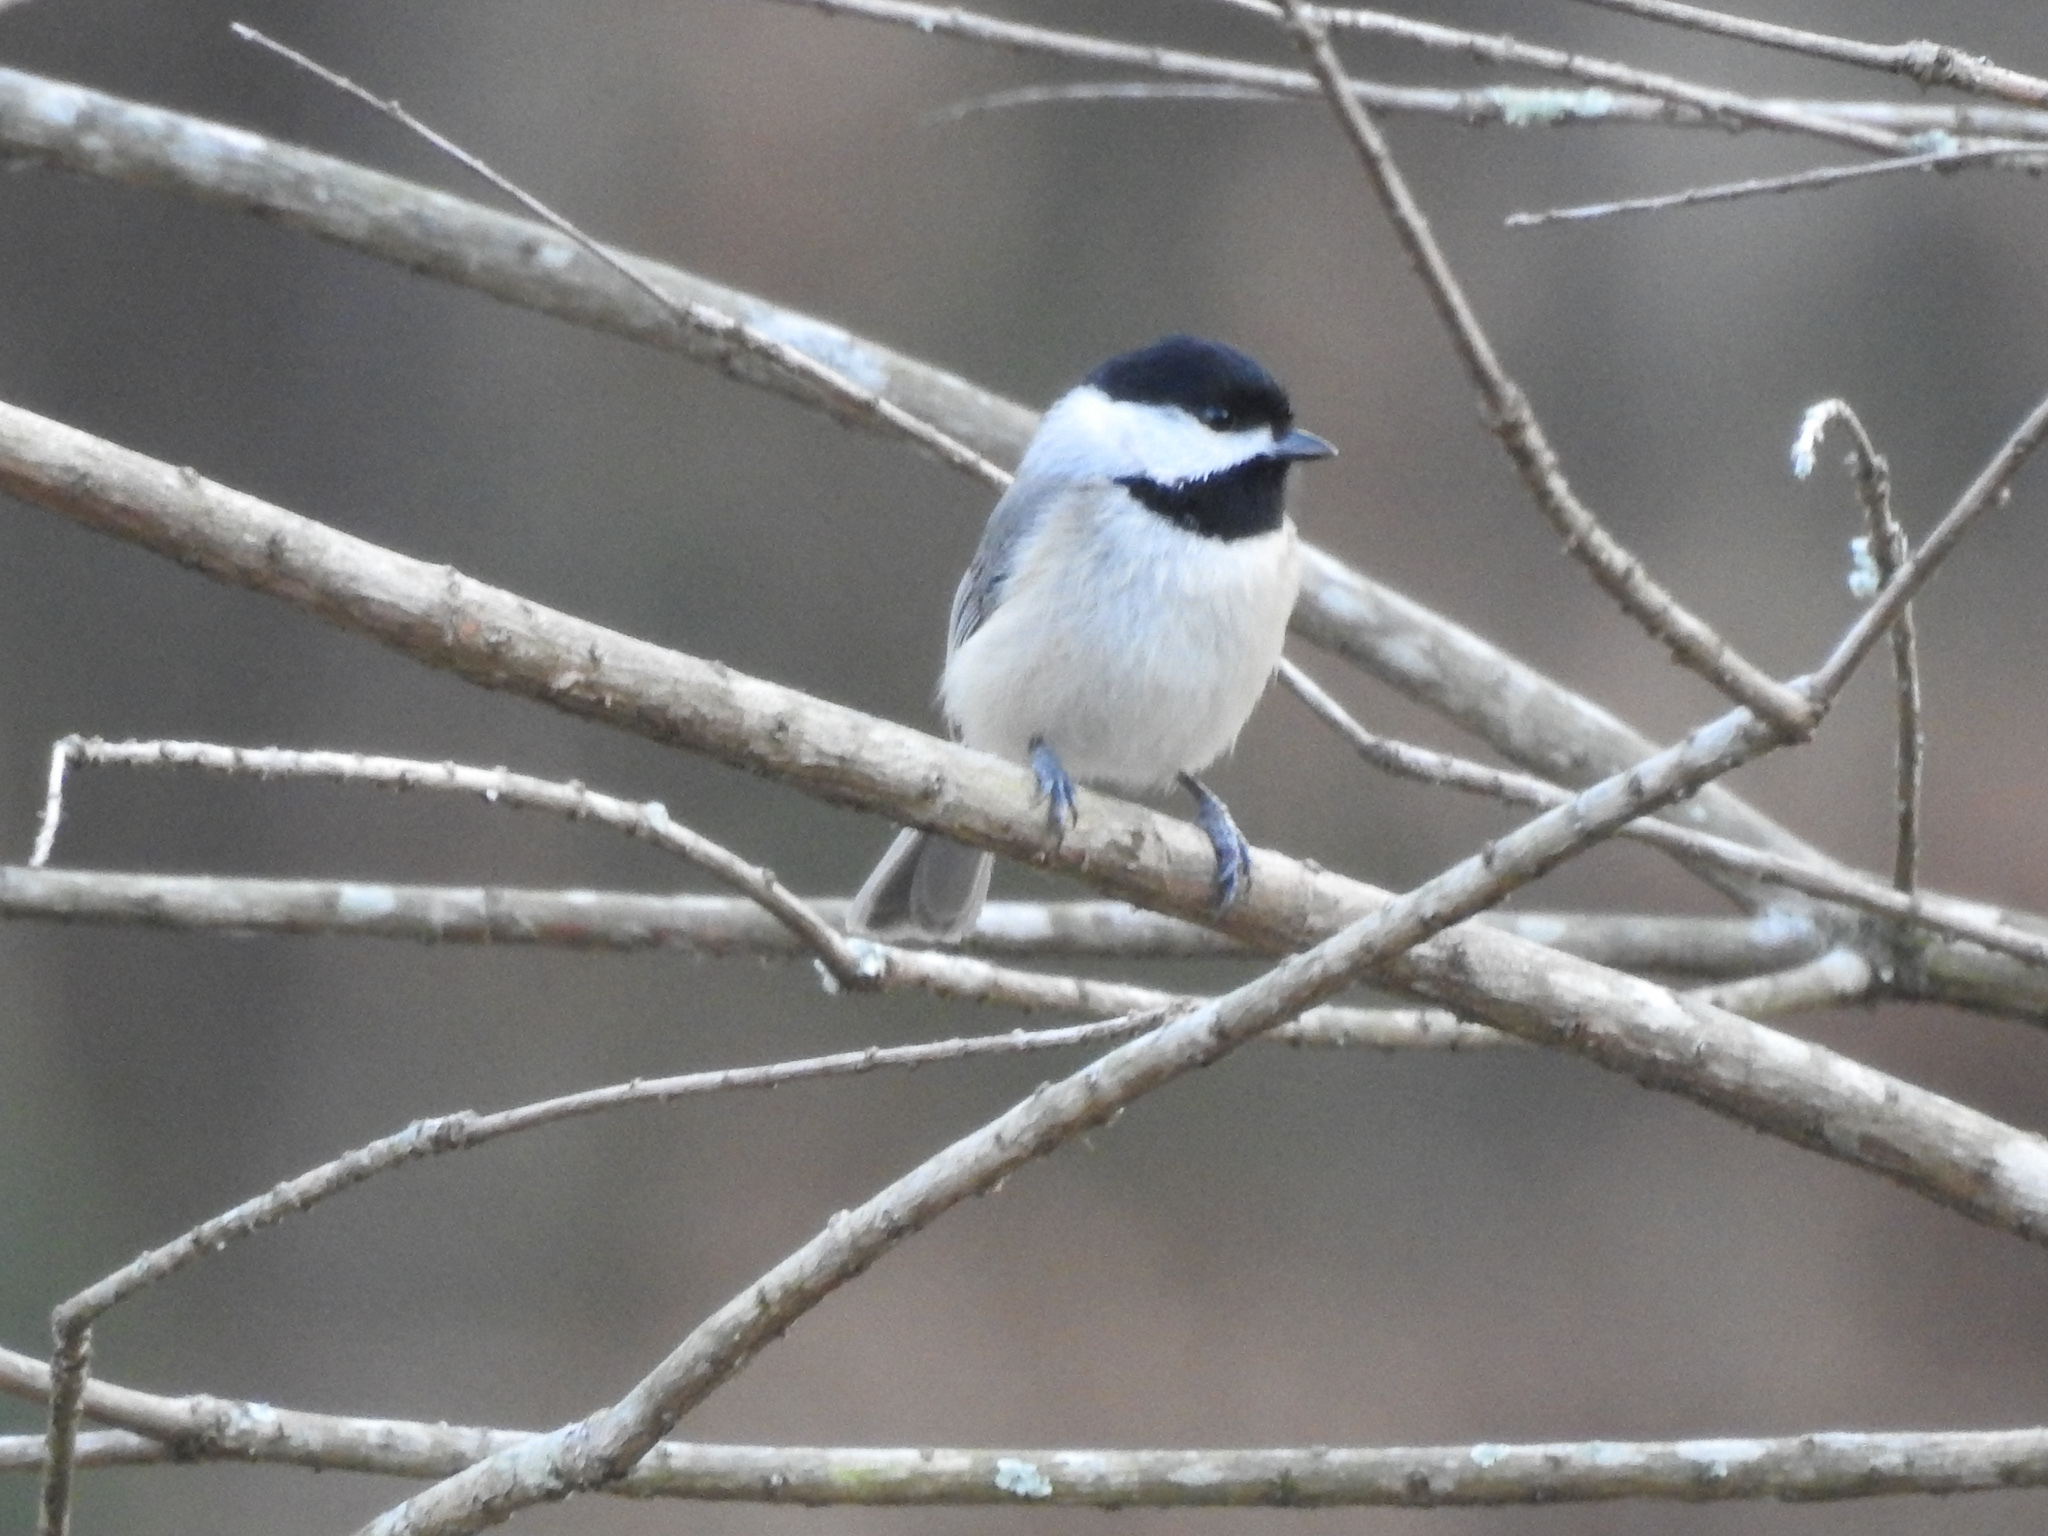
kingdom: Animalia
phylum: Chordata
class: Aves
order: Passeriformes
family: Paridae
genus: Poecile
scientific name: Poecile carolinensis
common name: Carolina chickadee
